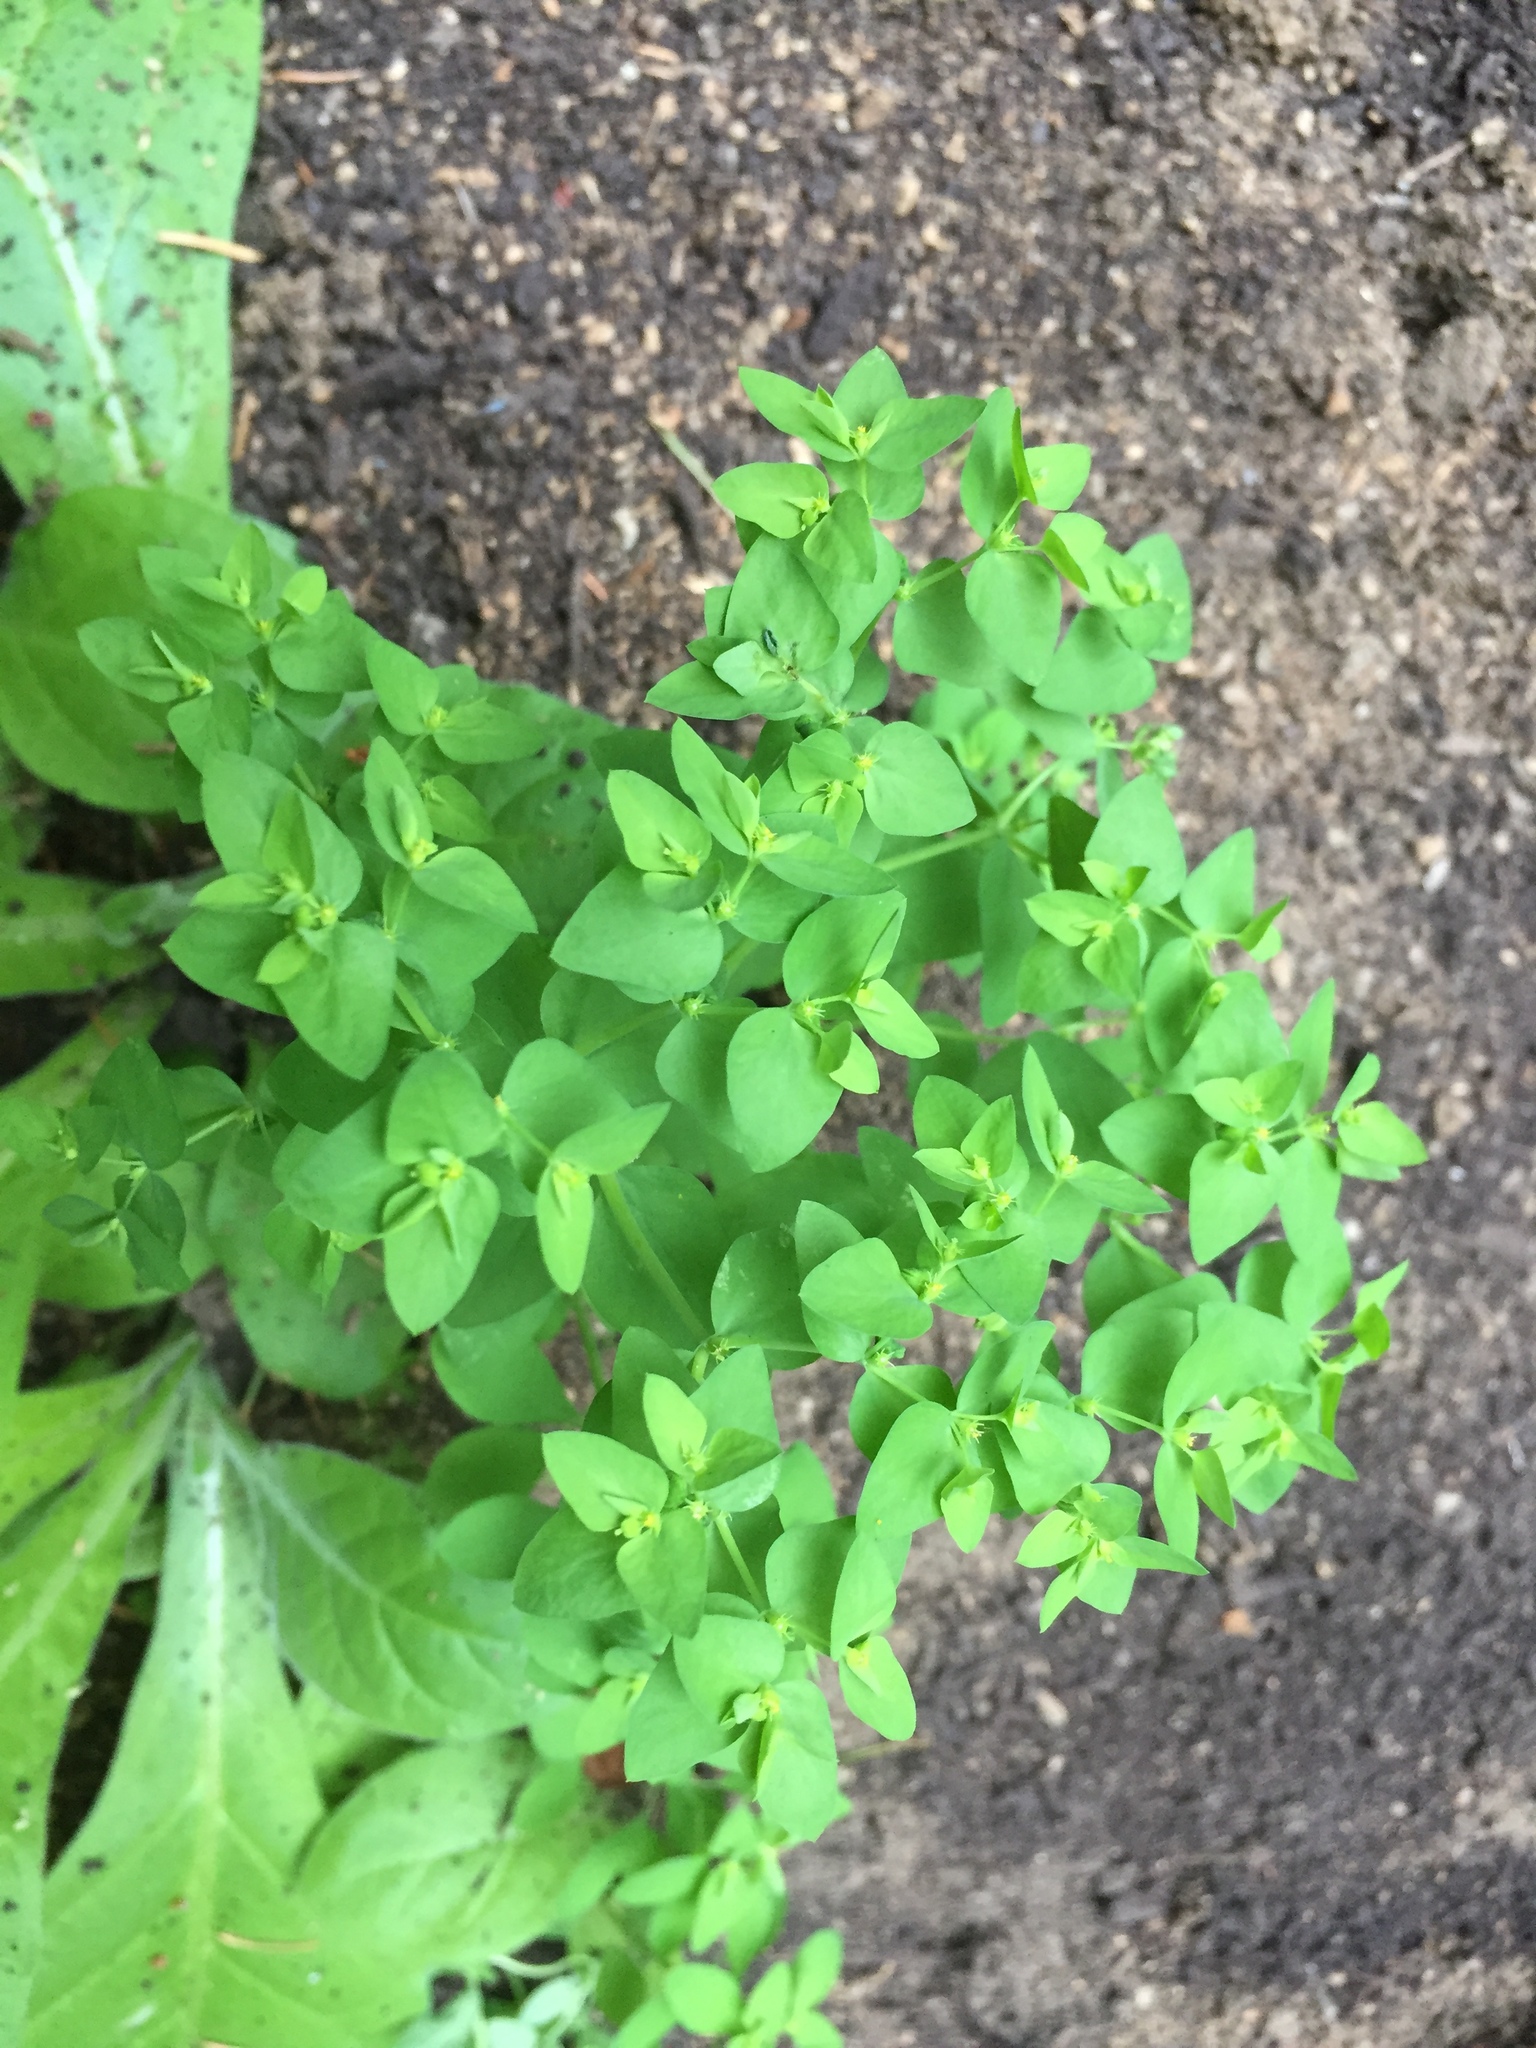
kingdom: Plantae
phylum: Tracheophyta
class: Magnoliopsida
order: Malpighiales
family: Euphorbiaceae
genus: Euphorbia
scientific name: Euphorbia peplus
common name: Petty spurge
